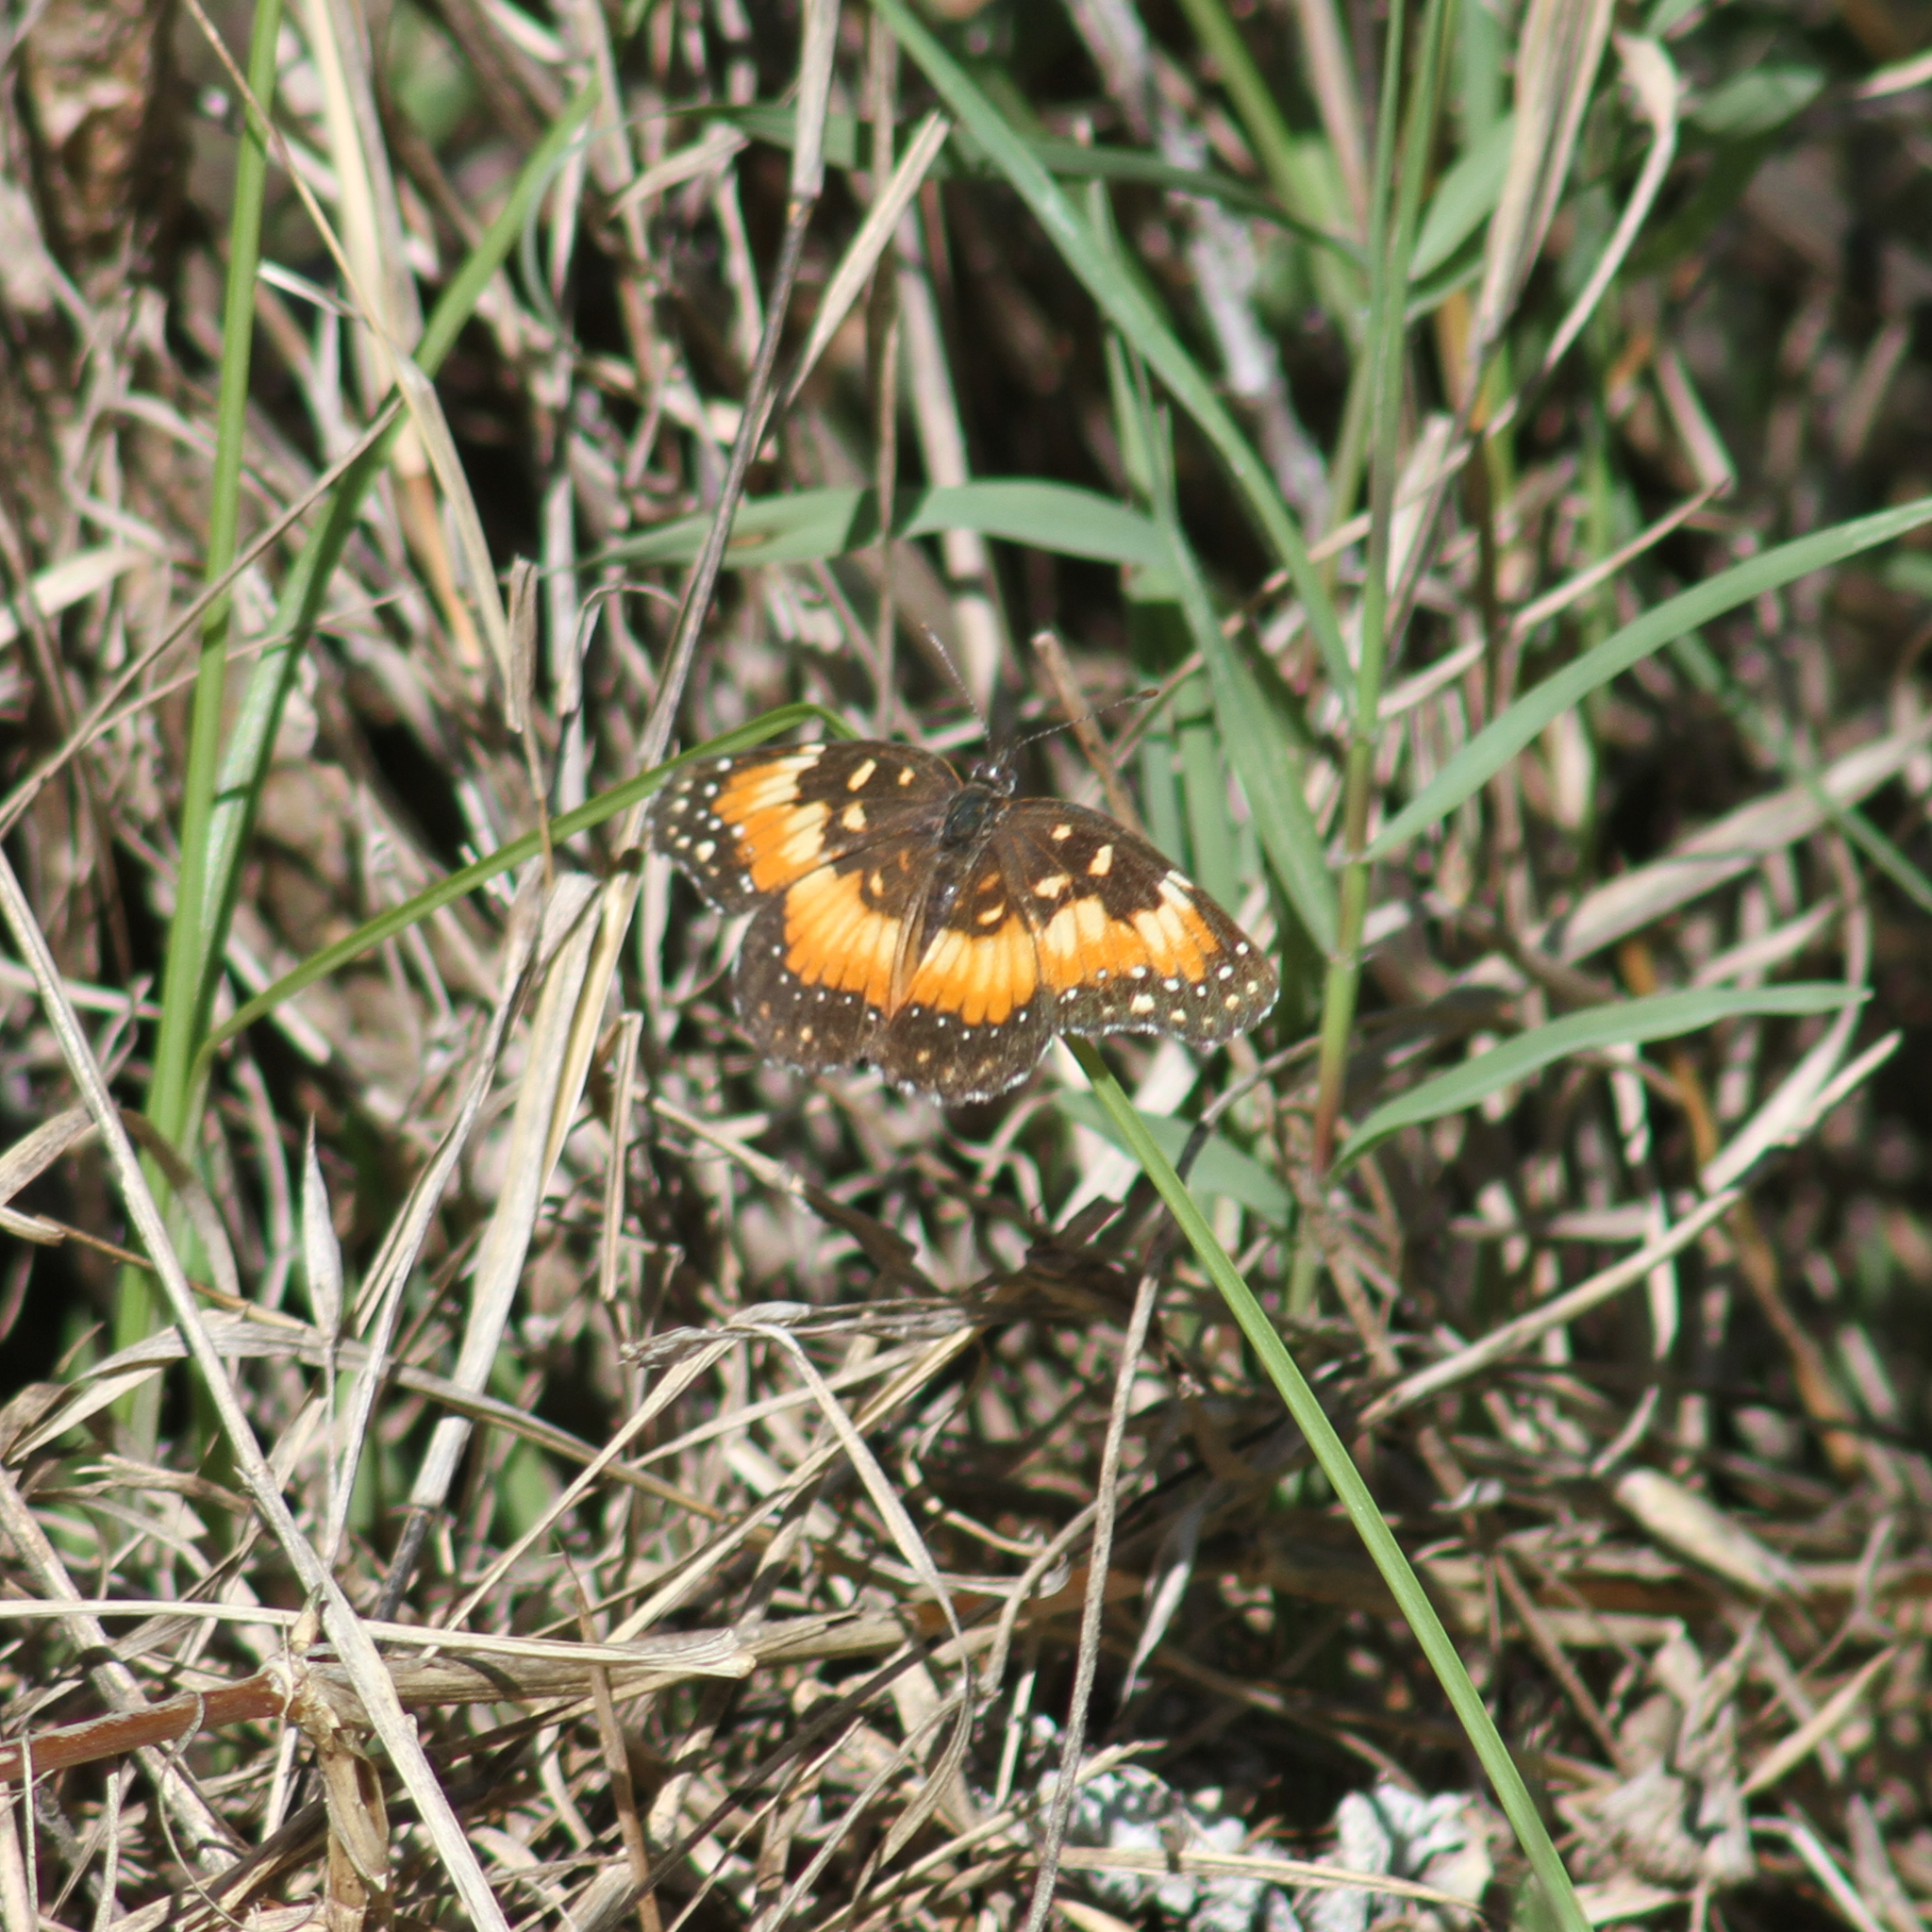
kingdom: Animalia
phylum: Arthropoda
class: Insecta
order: Lepidoptera
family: Nymphalidae
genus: Chlosyne
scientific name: Chlosyne lacinia
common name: Bordered patch
